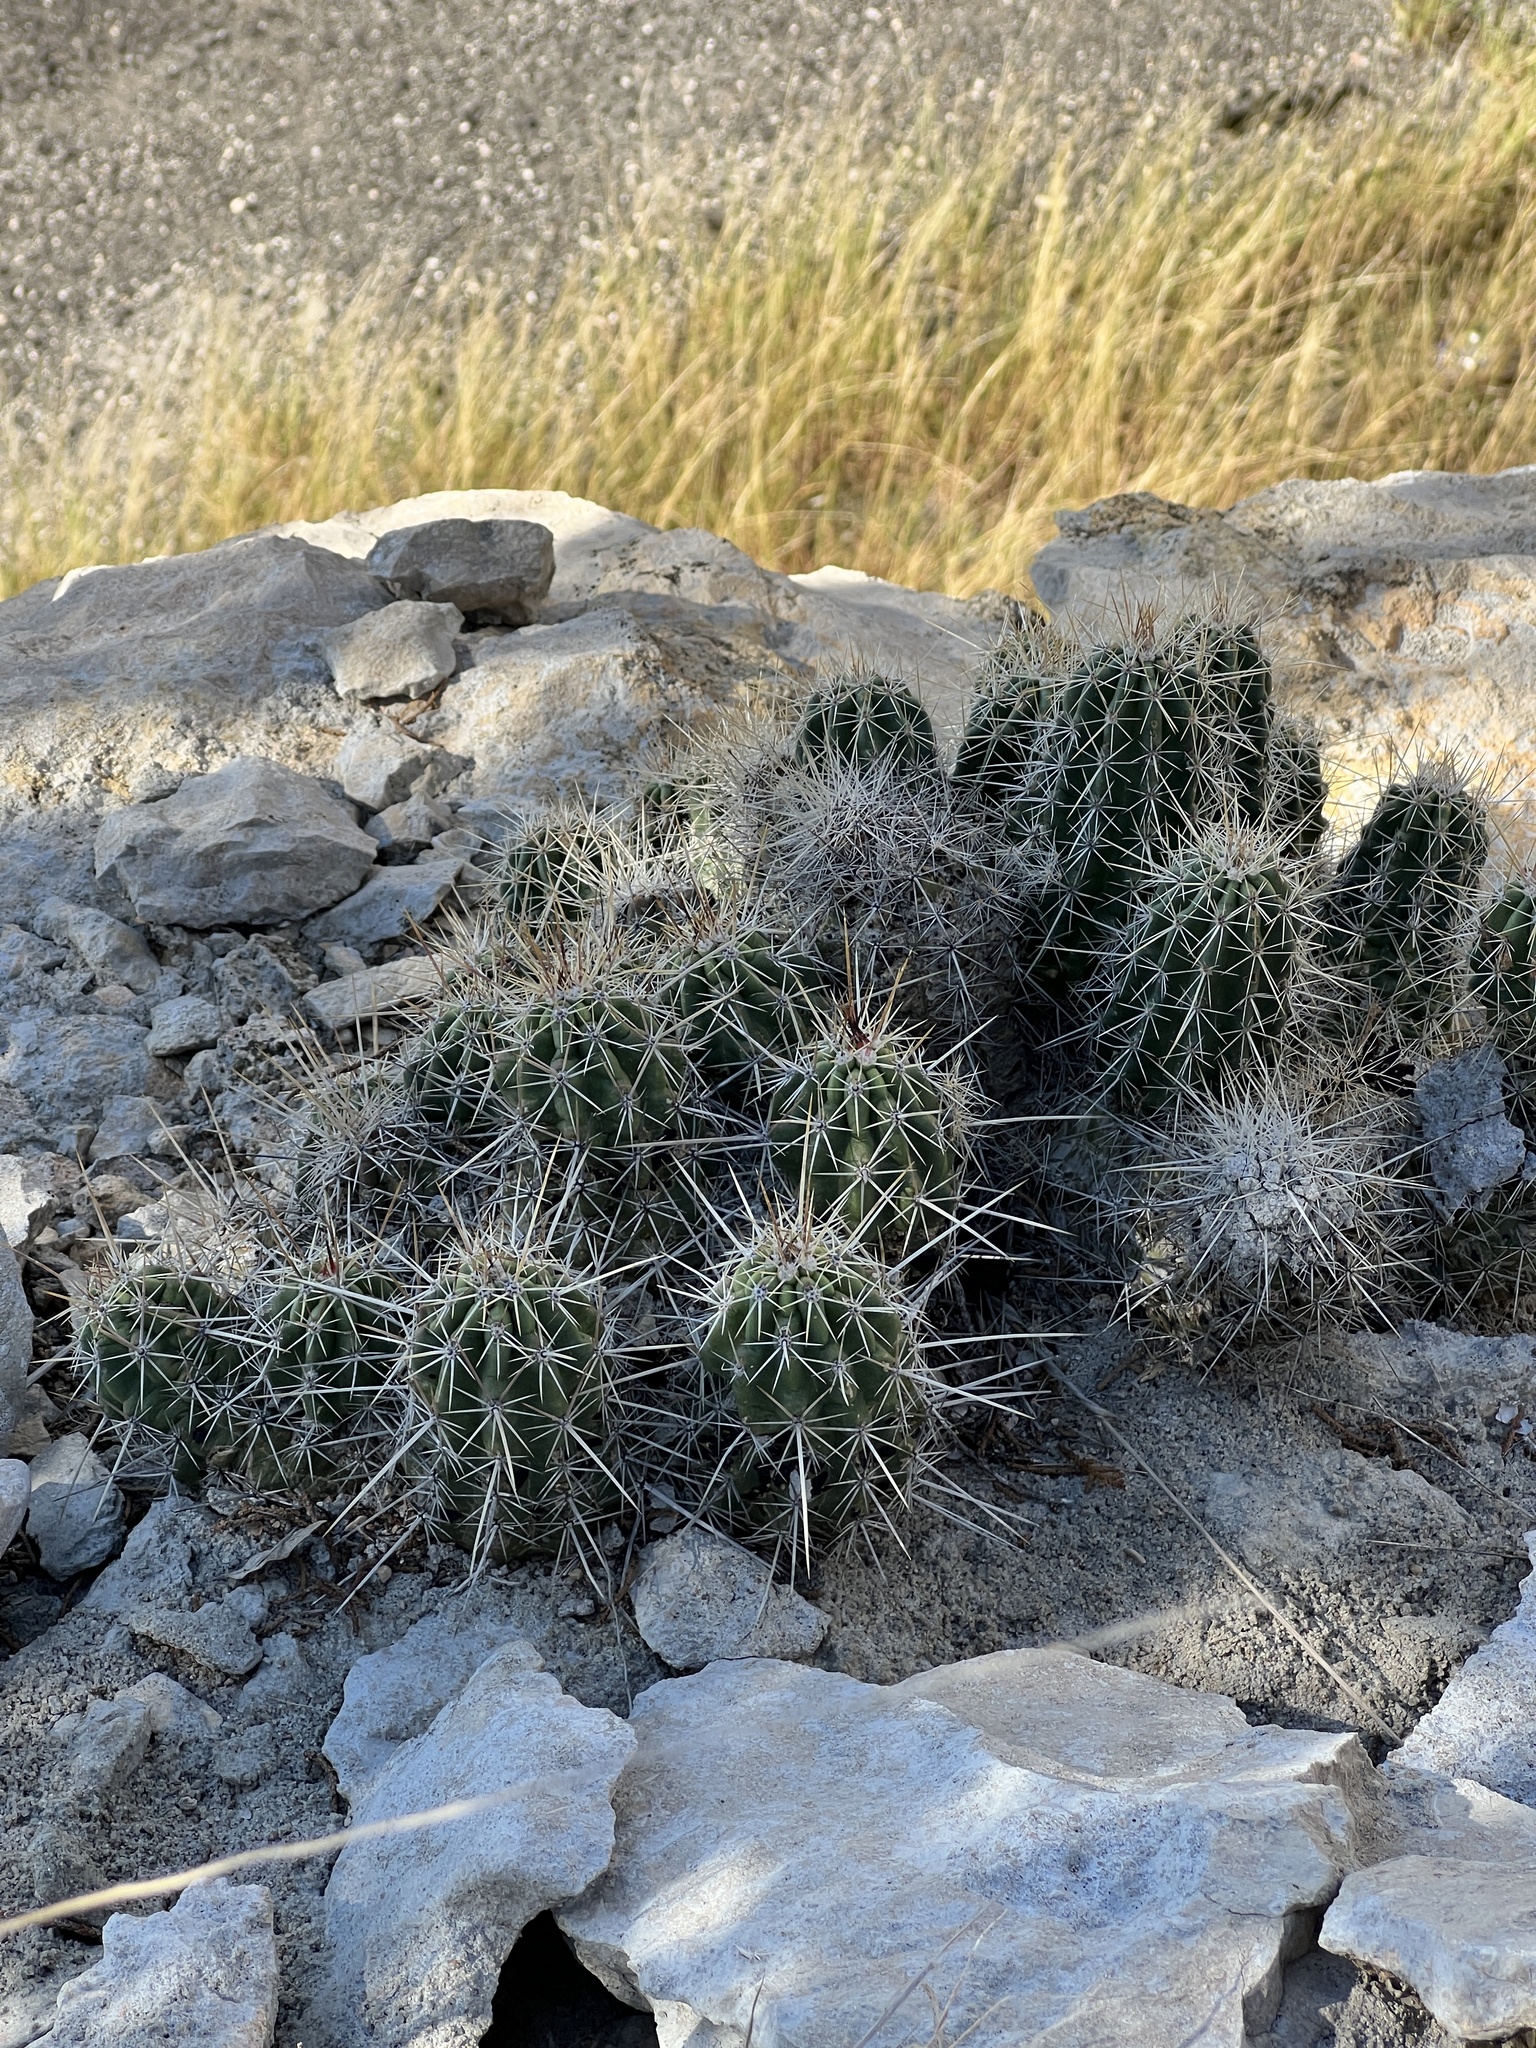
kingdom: Plantae
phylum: Tracheophyta
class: Magnoliopsida
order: Caryophyllales
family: Cactaceae
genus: Echinocereus
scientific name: Echinocereus enneacanthus
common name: Pitaya
